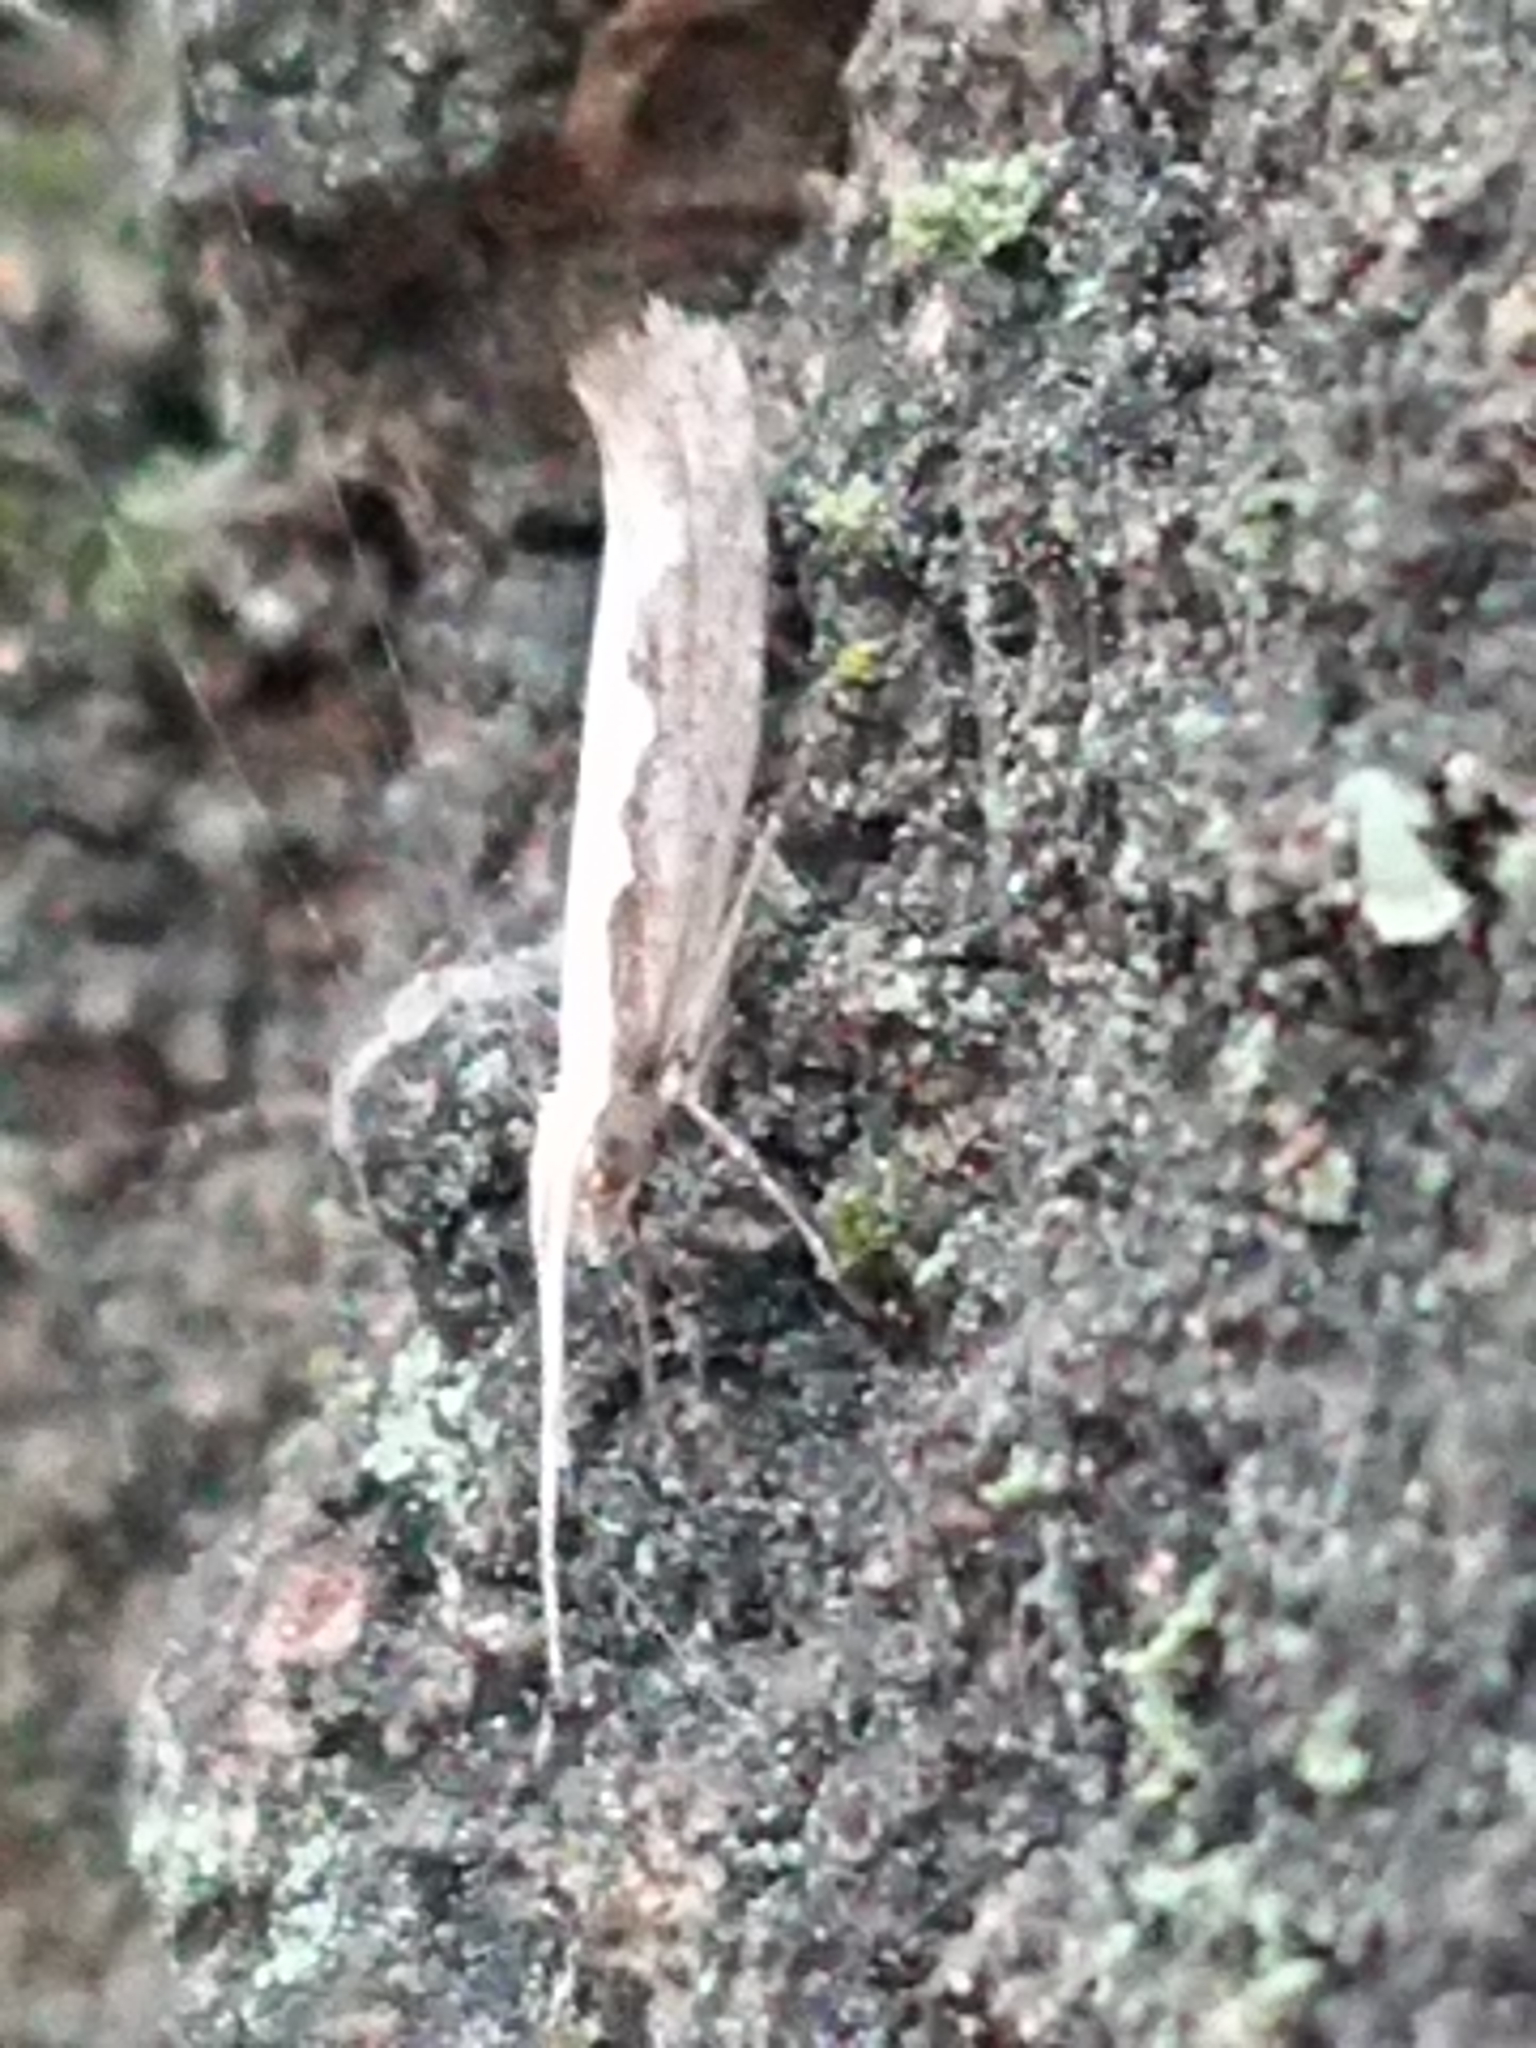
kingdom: Animalia
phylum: Arthropoda
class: Insecta
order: Lepidoptera
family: Plutellidae
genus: Plutella
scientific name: Plutella xylostella
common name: Diamond-back moth
